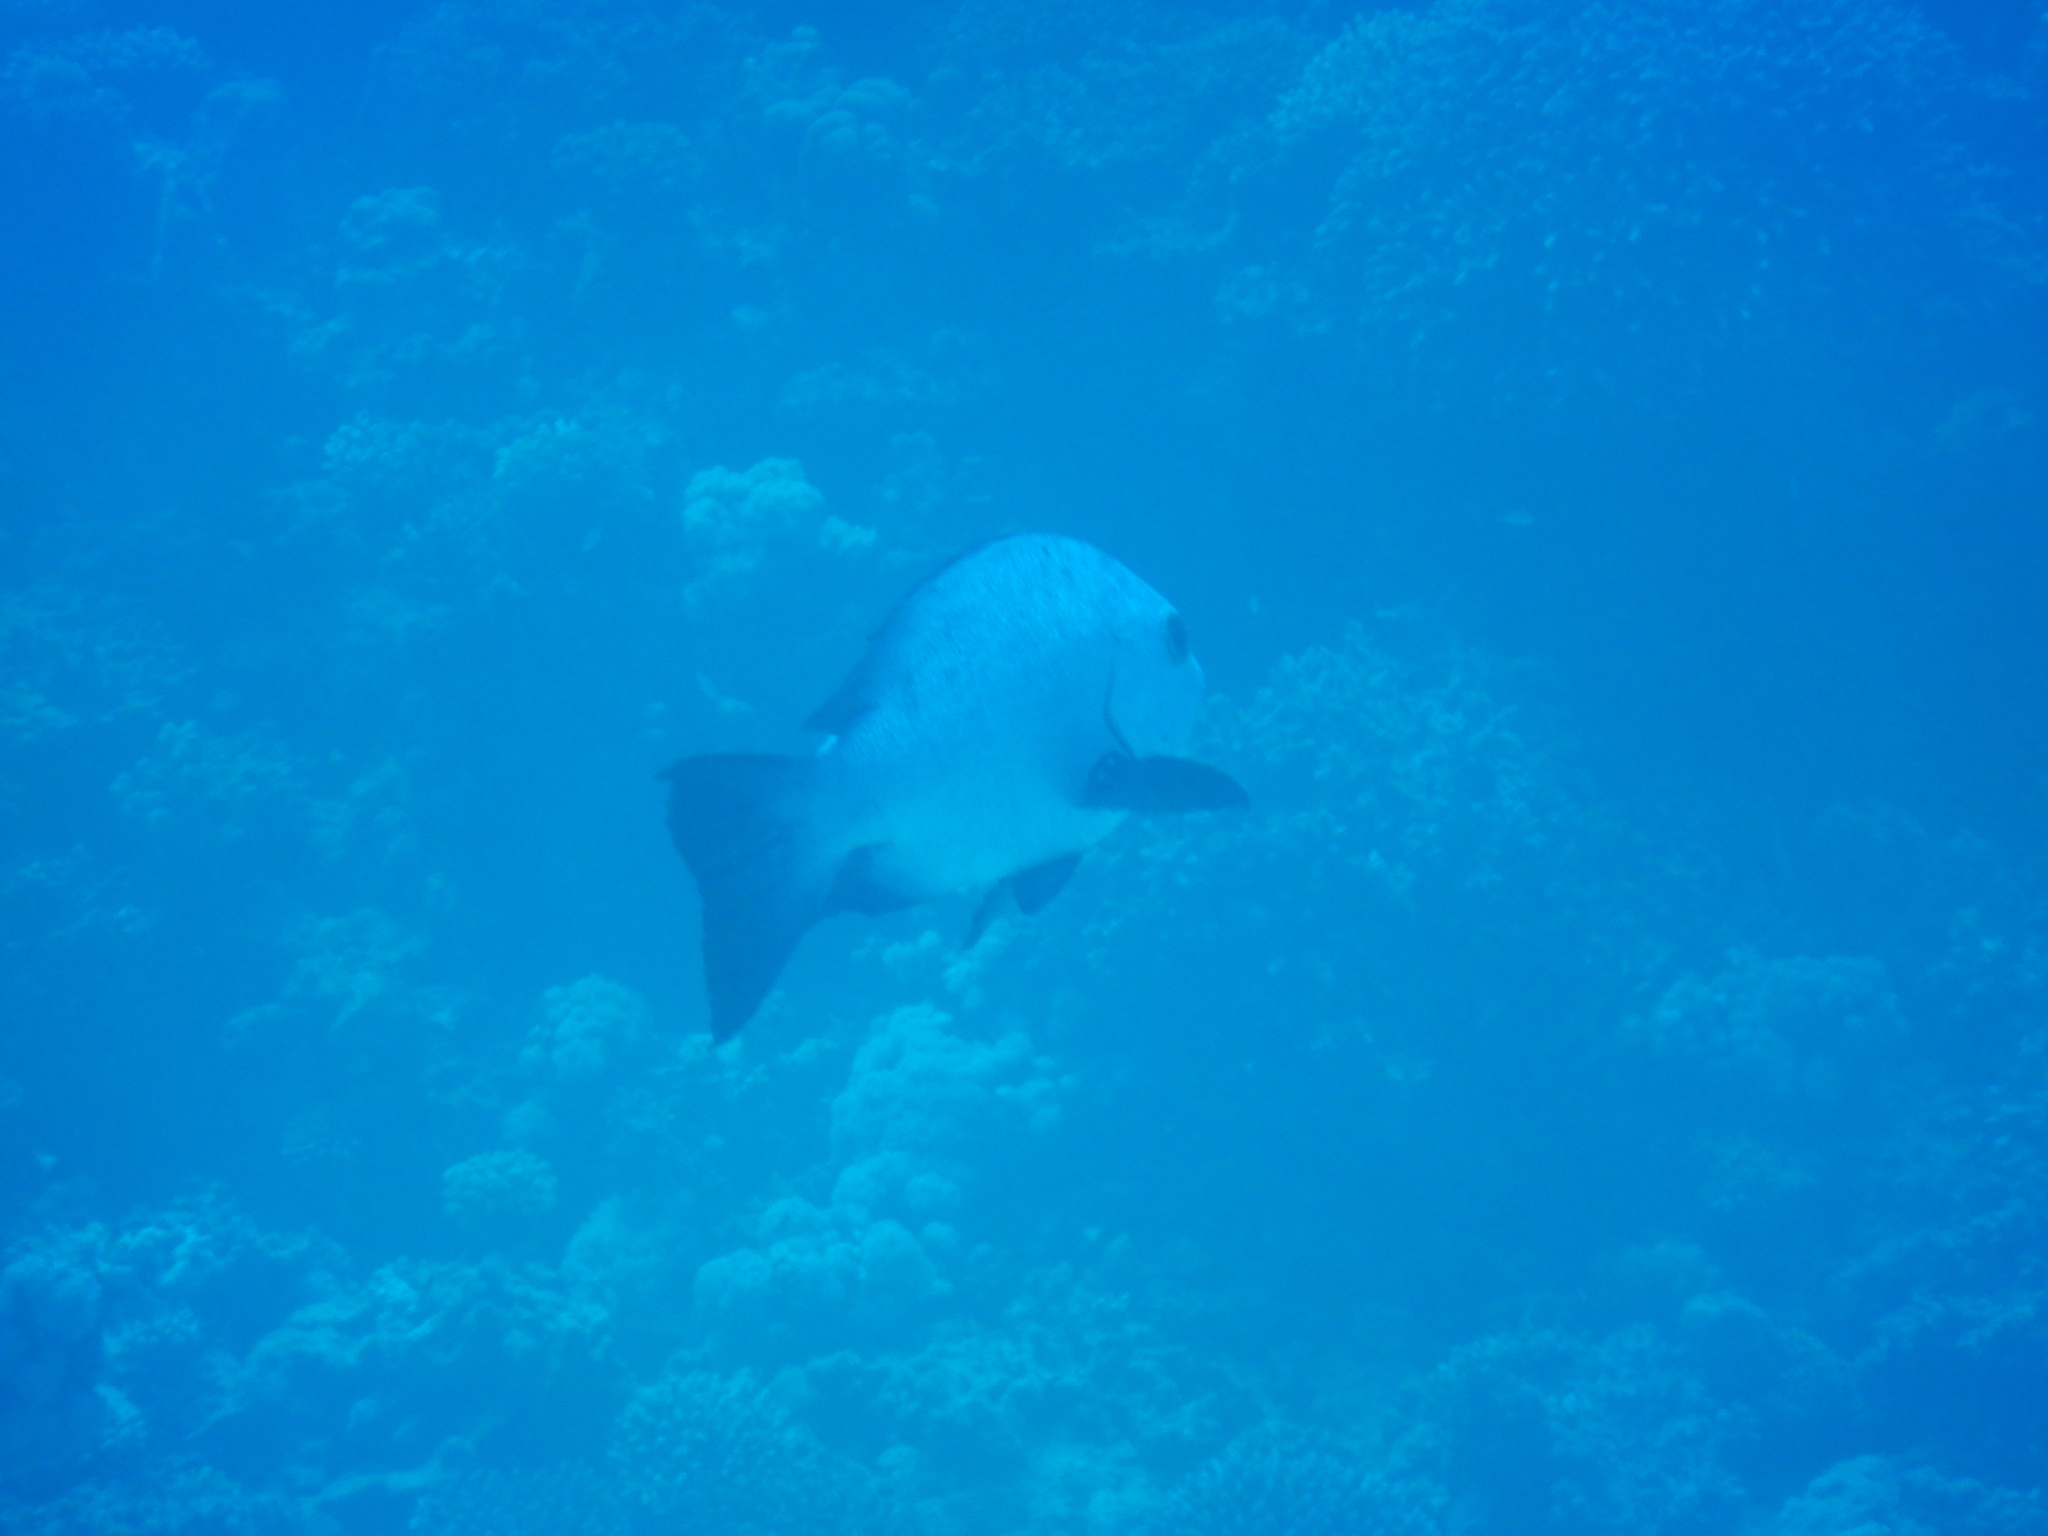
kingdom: Animalia
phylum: Chordata
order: Perciformes
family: Lutjanidae
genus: Macolor
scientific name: Macolor niger
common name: Black snapper
